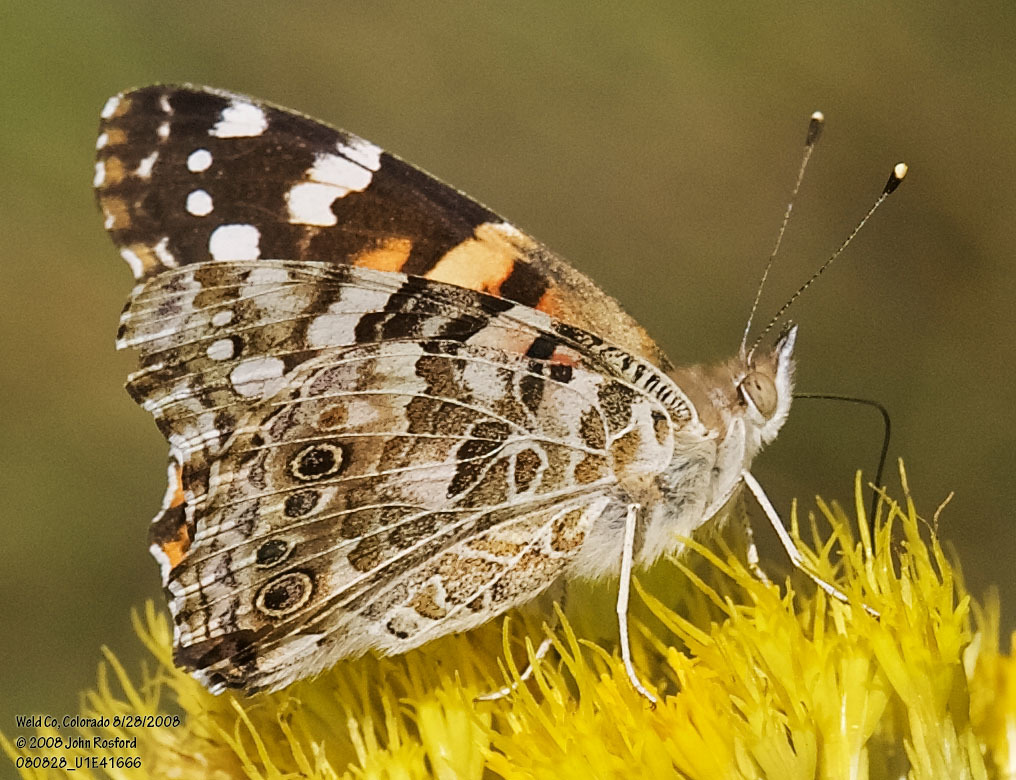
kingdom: Animalia
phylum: Arthropoda
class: Insecta
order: Lepidoptera
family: Nymphalidae
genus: Vanessa
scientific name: Vanessa cardui
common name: Painted lady
